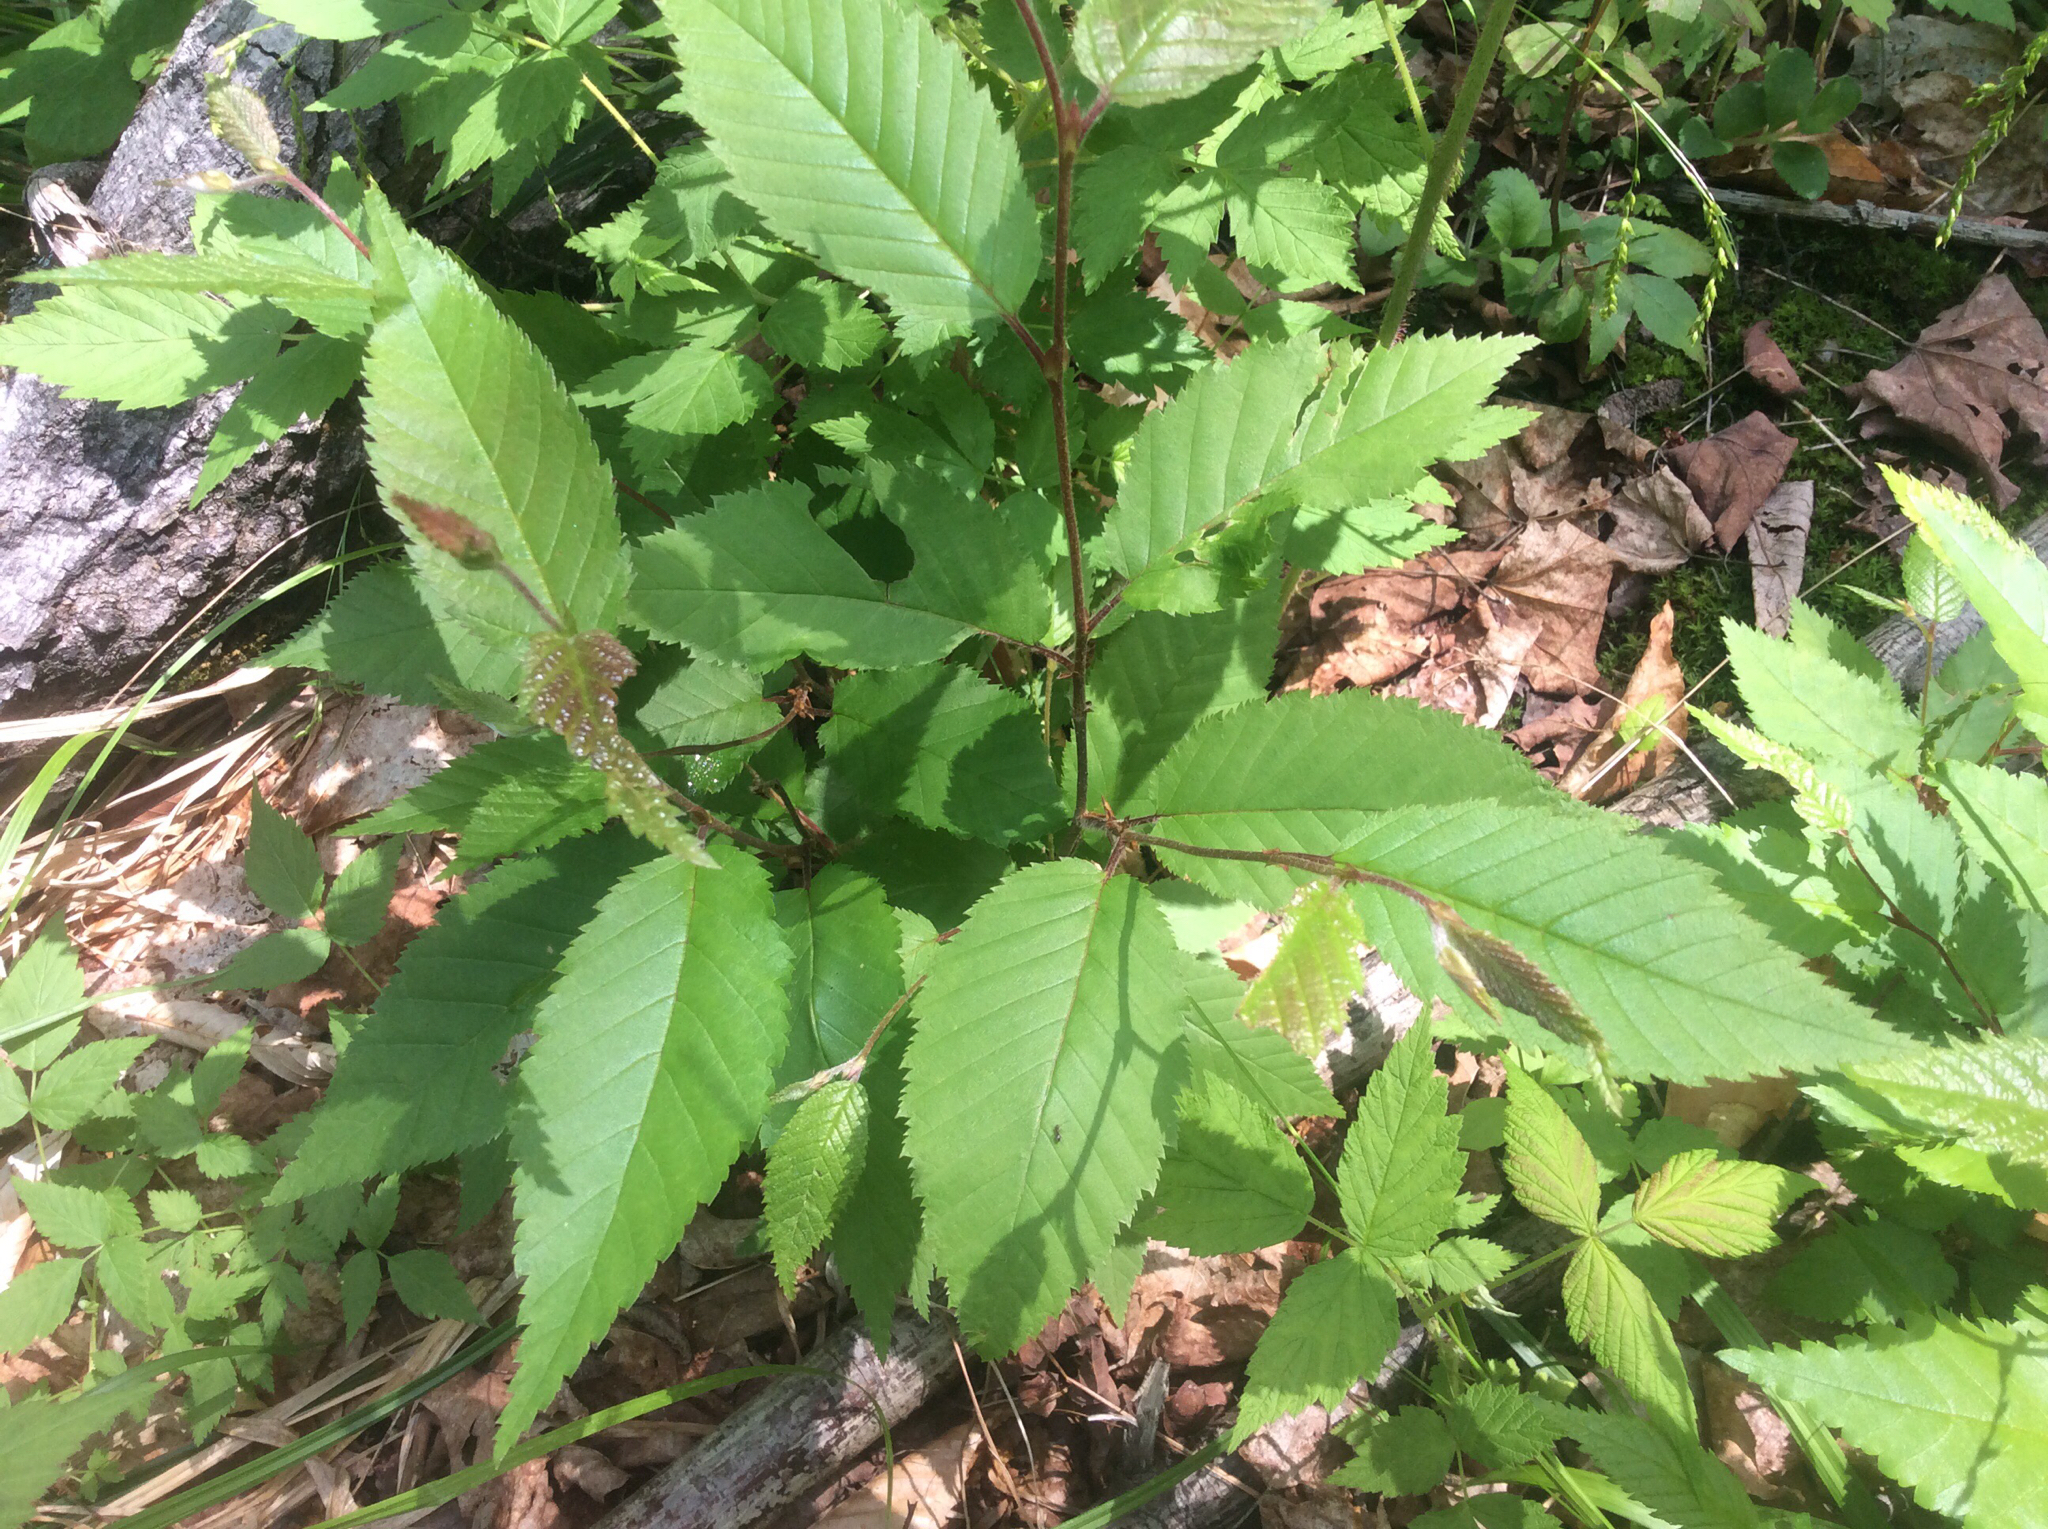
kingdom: Plantae
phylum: Tracheophyta
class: Magnoliopsida
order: Fagales
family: Betulaceae
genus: Betula
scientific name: Betula alleghaniensis
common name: Yellow birch
